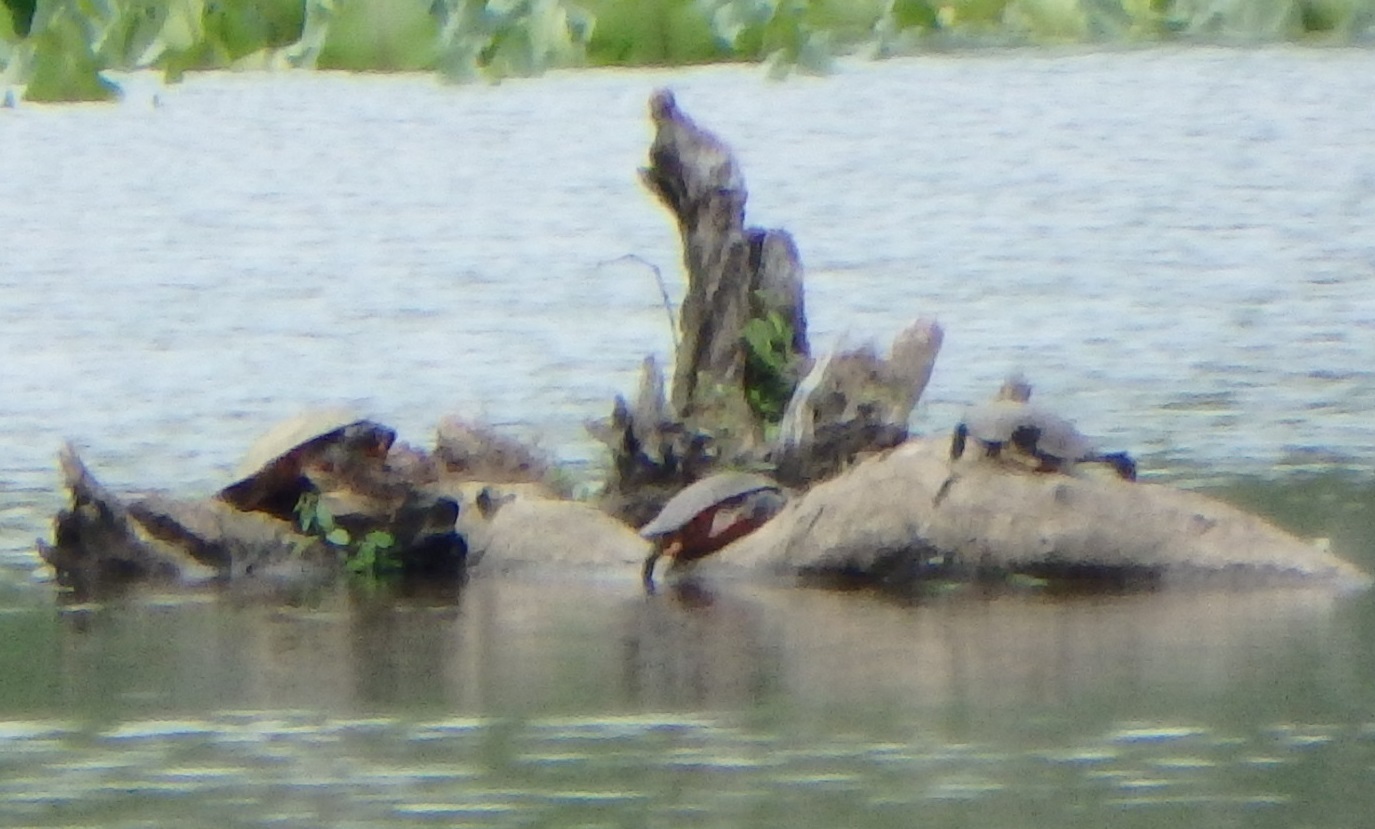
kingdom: Animalia
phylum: Chordata
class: Testudines
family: Emydidae
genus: Pseudemys
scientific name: Pseudemys rubriventris
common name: American red-bellied turtle
